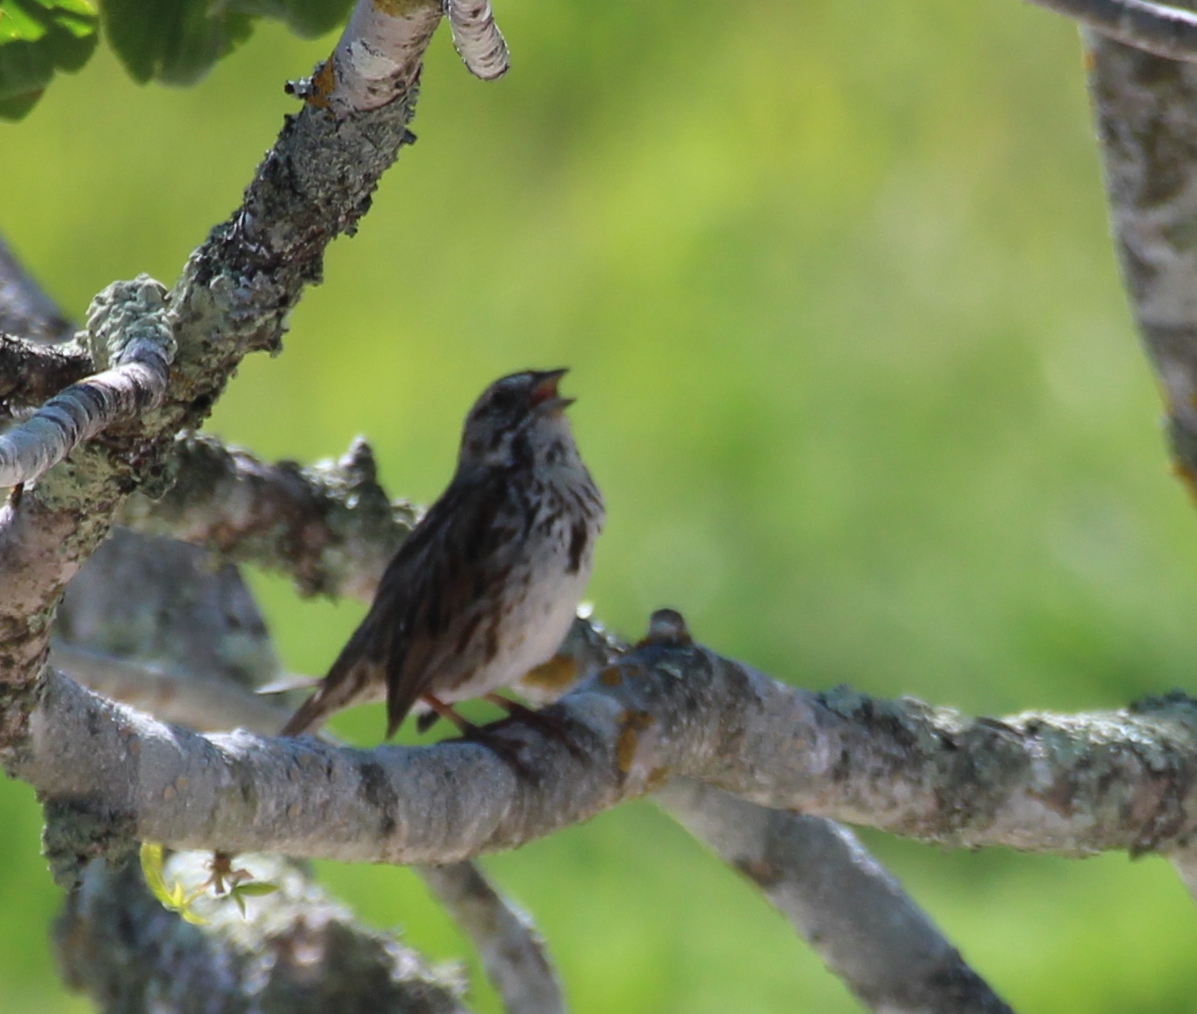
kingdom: Animalia
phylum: Chordata
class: Aves
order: Passeriformes
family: Passerellidae
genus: Melospiza
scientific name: Melospiza melodia
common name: Song sparrow
